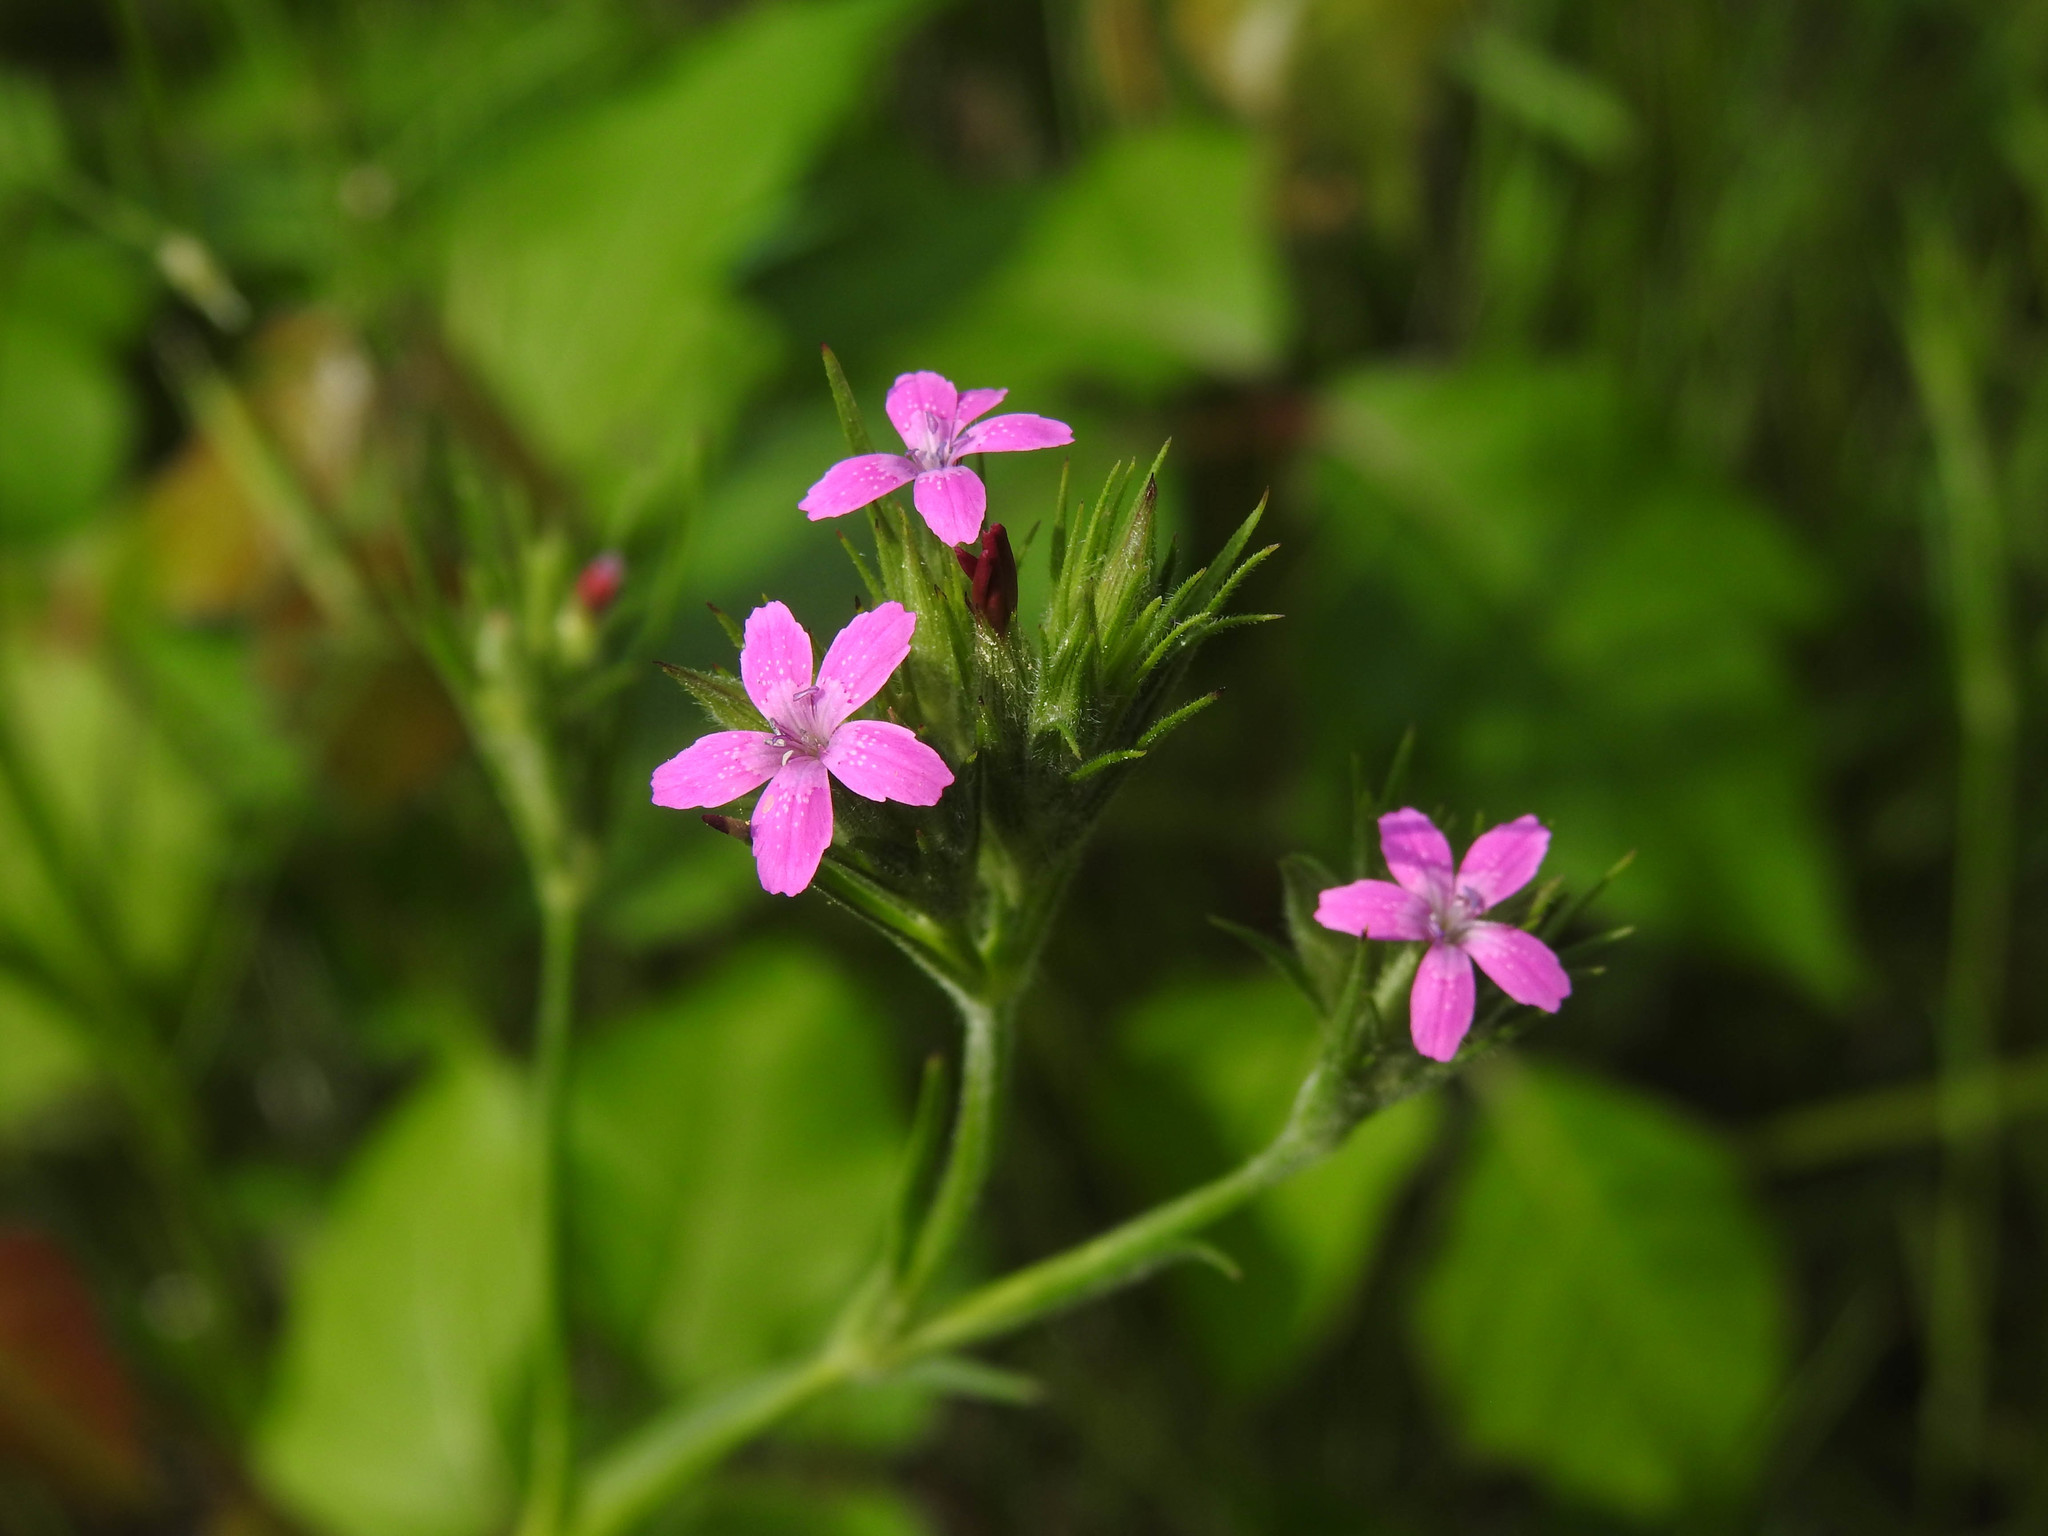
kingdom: Plantae
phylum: Tracheophyta
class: Magnoliopsida
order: Caryophyllales
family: Caryophyllaceae
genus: Dianthus
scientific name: Dianthus armeria
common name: Deptford pink
